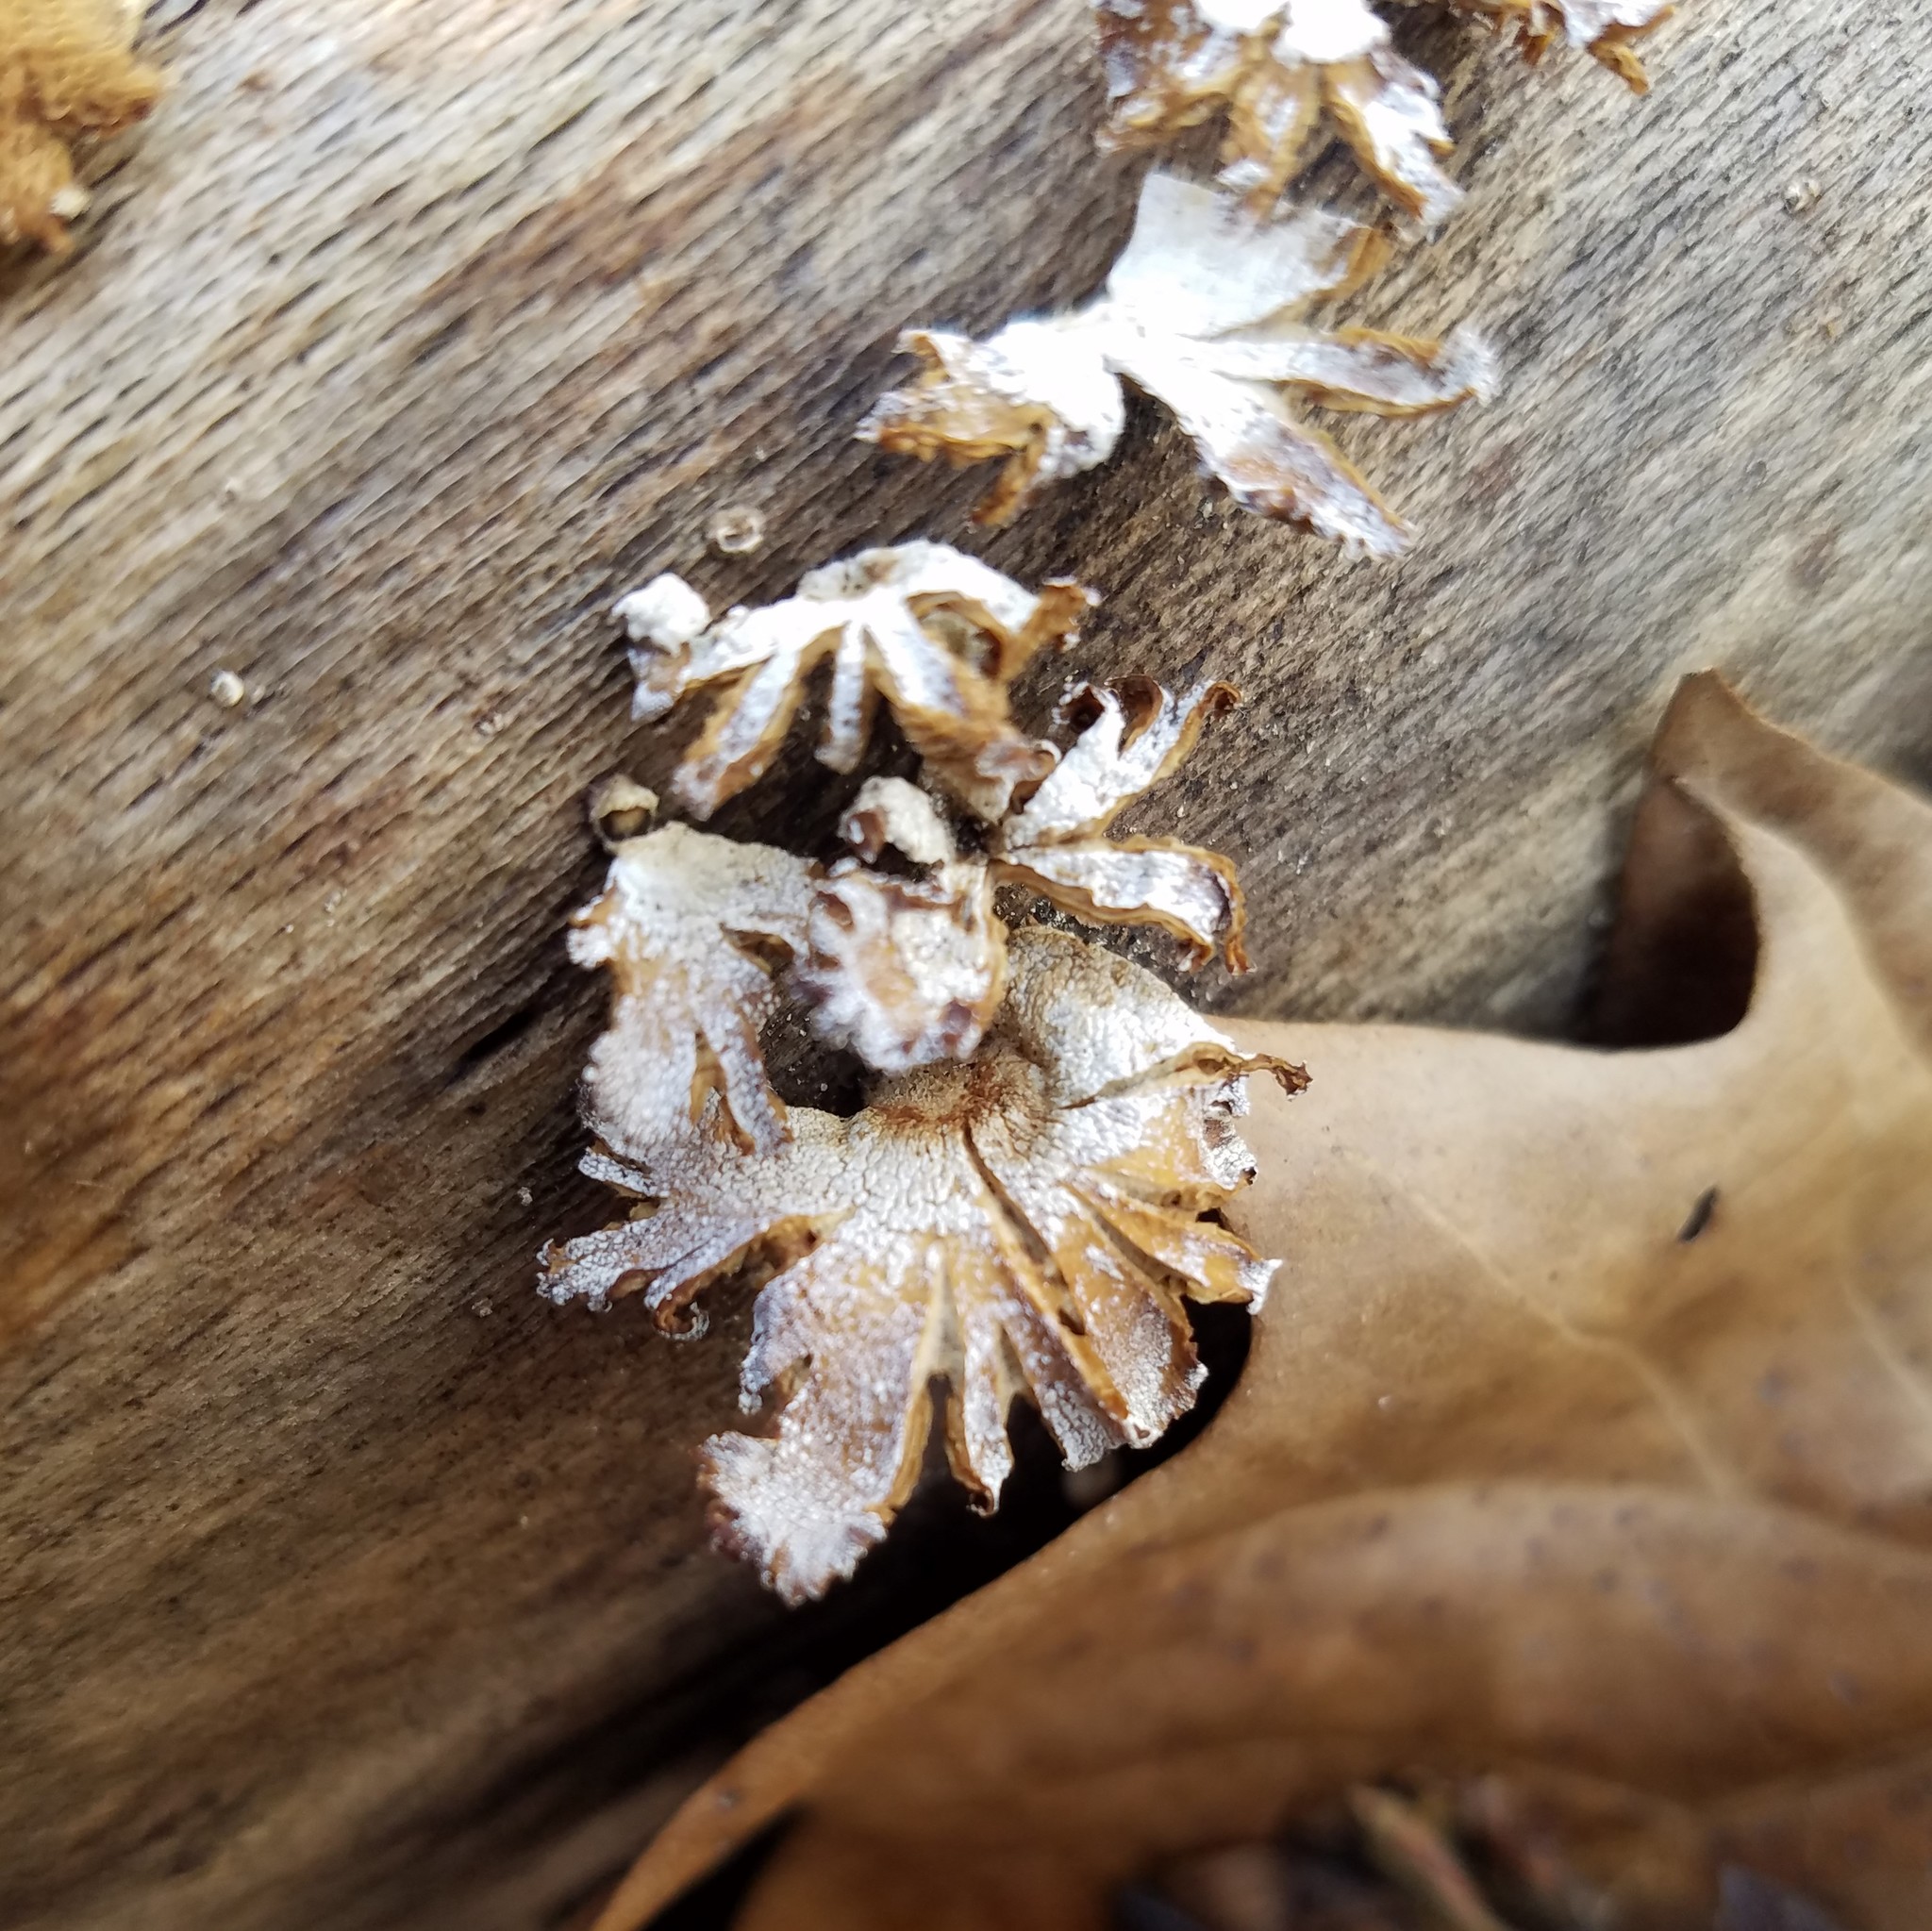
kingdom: Fungi
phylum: Basidiomycota
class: Agaricomycetes
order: Agaricales
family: Mycenaceae
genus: Panellus
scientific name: Panellus stipticus
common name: Bitter oysterling
